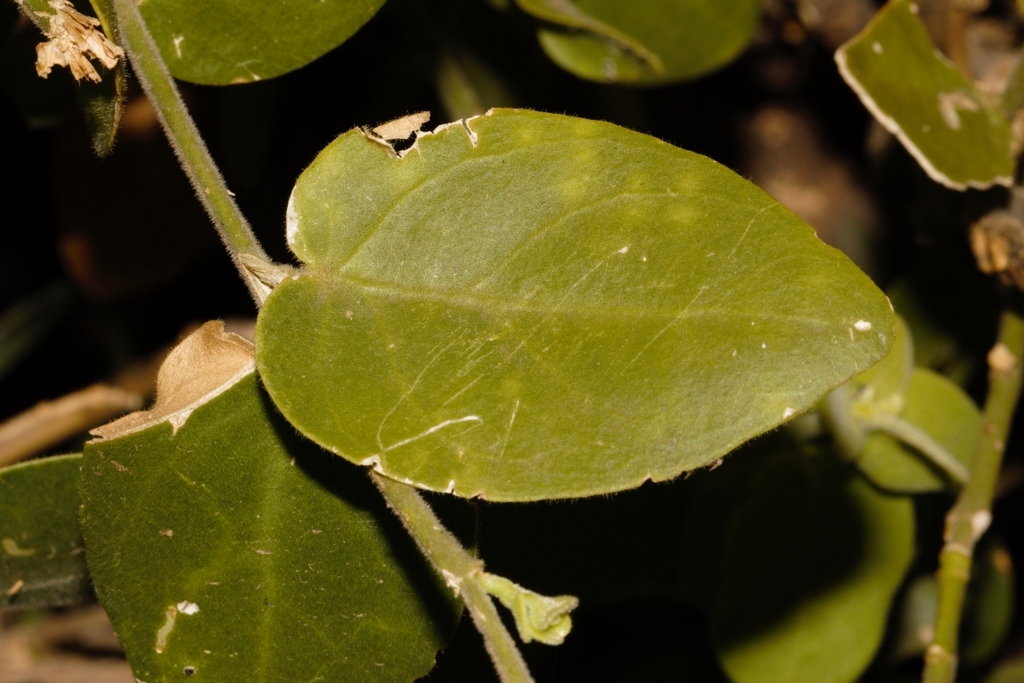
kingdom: Plantae
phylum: Tracheophyta
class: Magnoliopsida
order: Brassicales
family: Salvadoraceae
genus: Salvadora
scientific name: Salvadora persica
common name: Toothbrushtree
